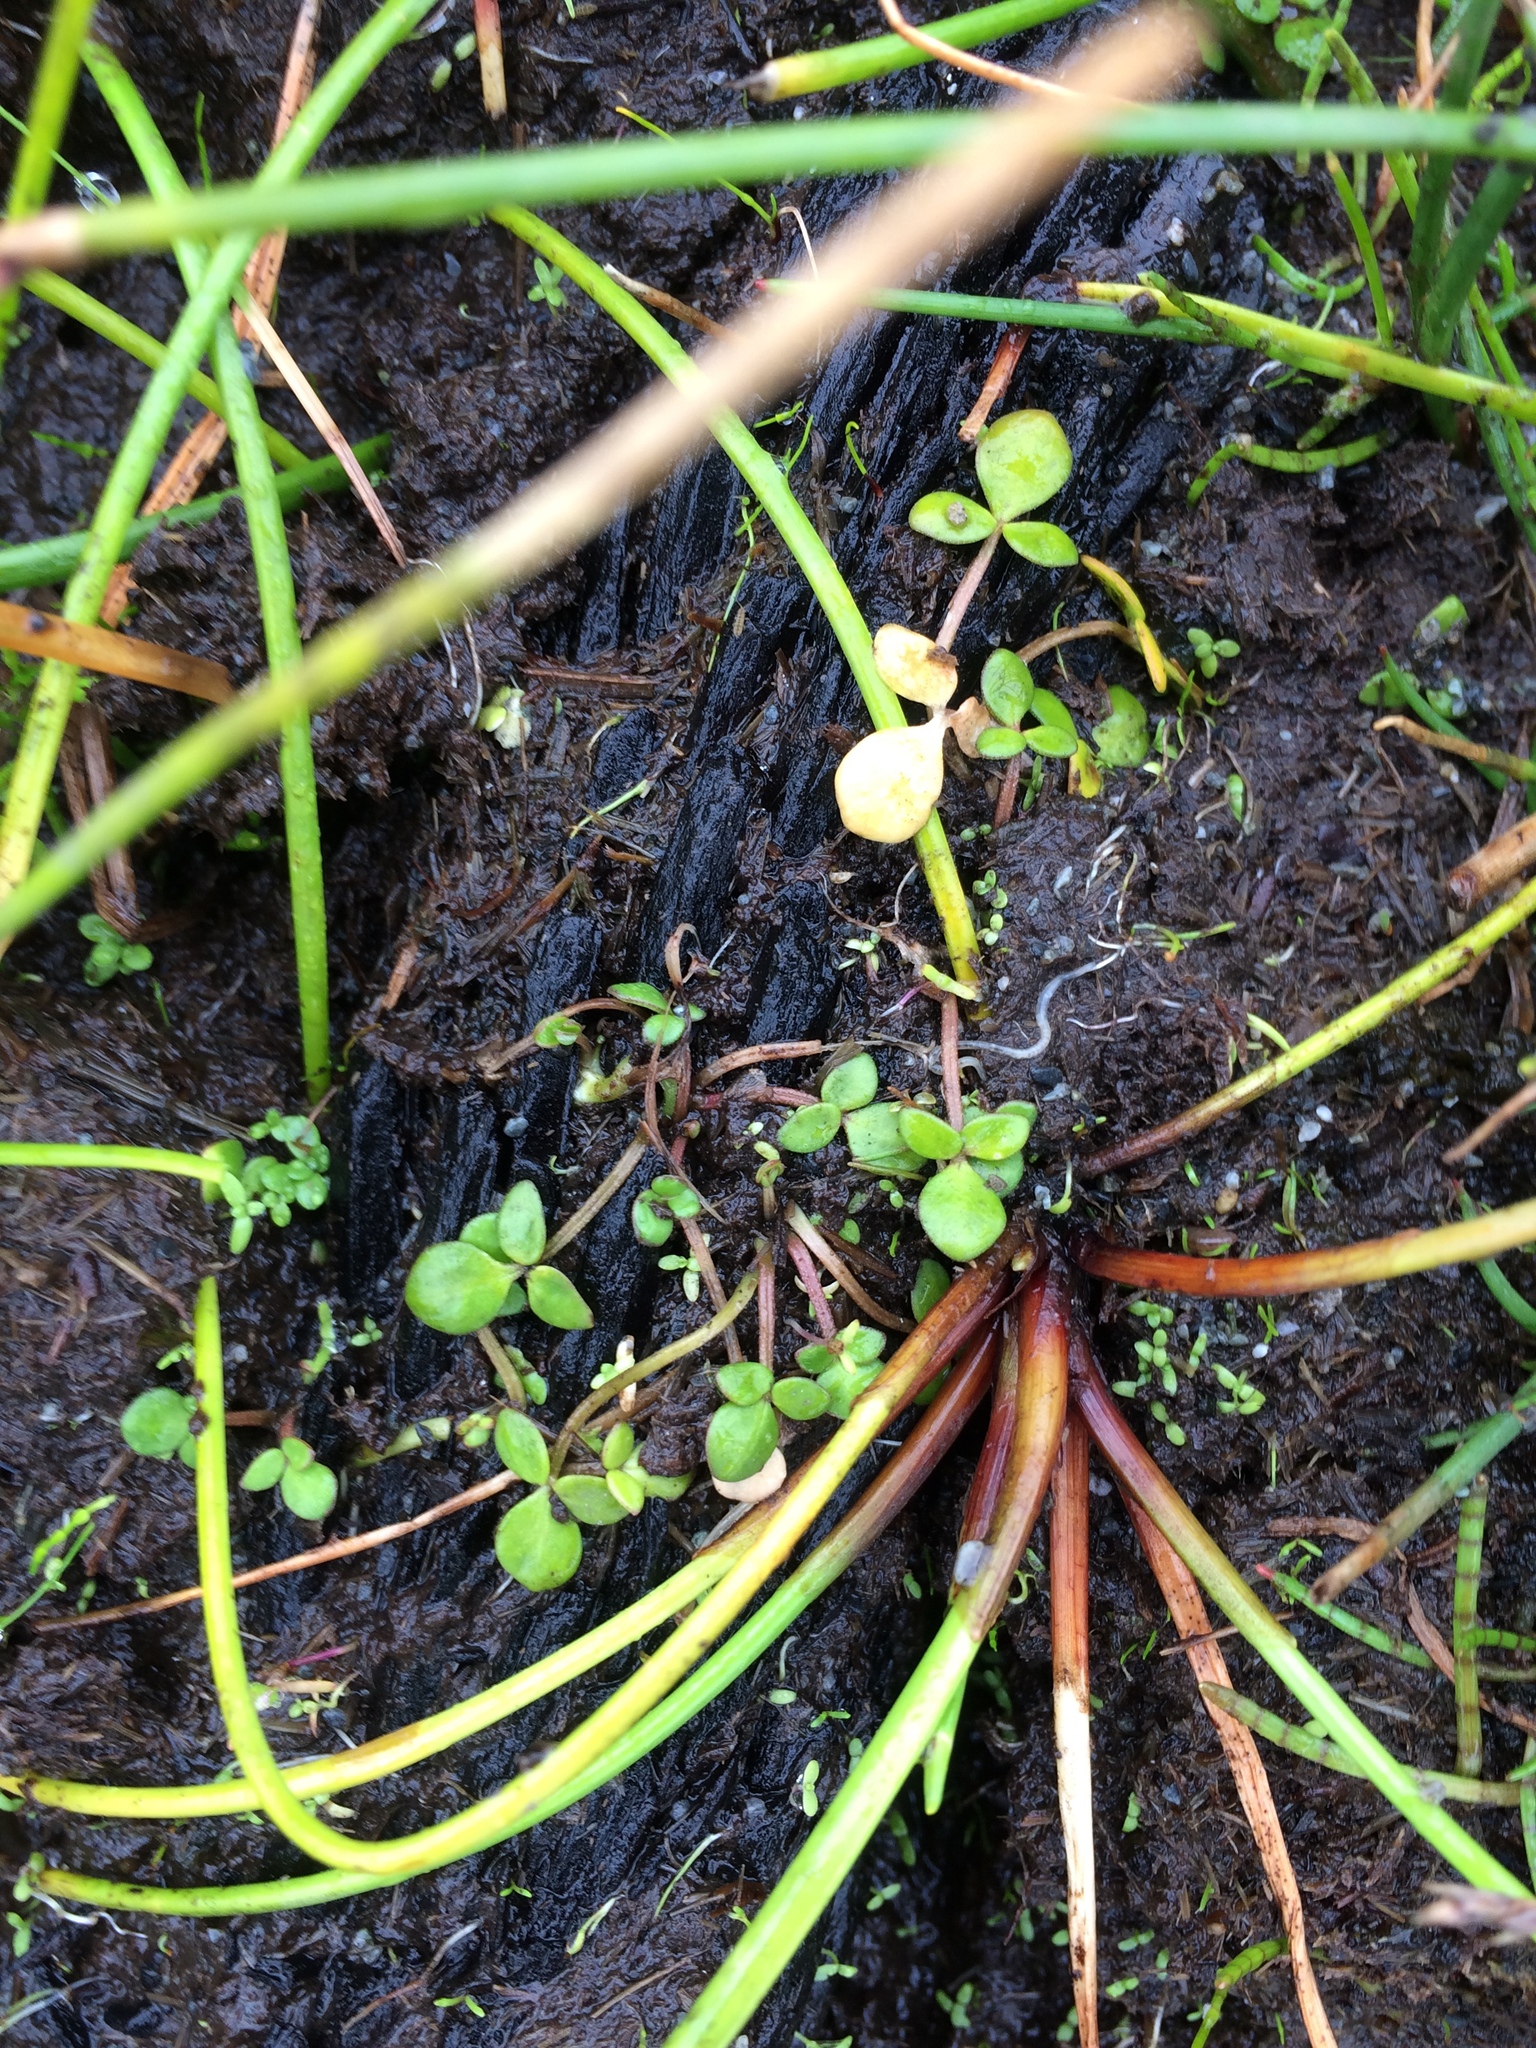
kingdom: Plantae
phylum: Tracheophyta
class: Magnoliopsida
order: Ranunculales
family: Ranunculaceae
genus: Ranunculus
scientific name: Ranunculus acaulis
